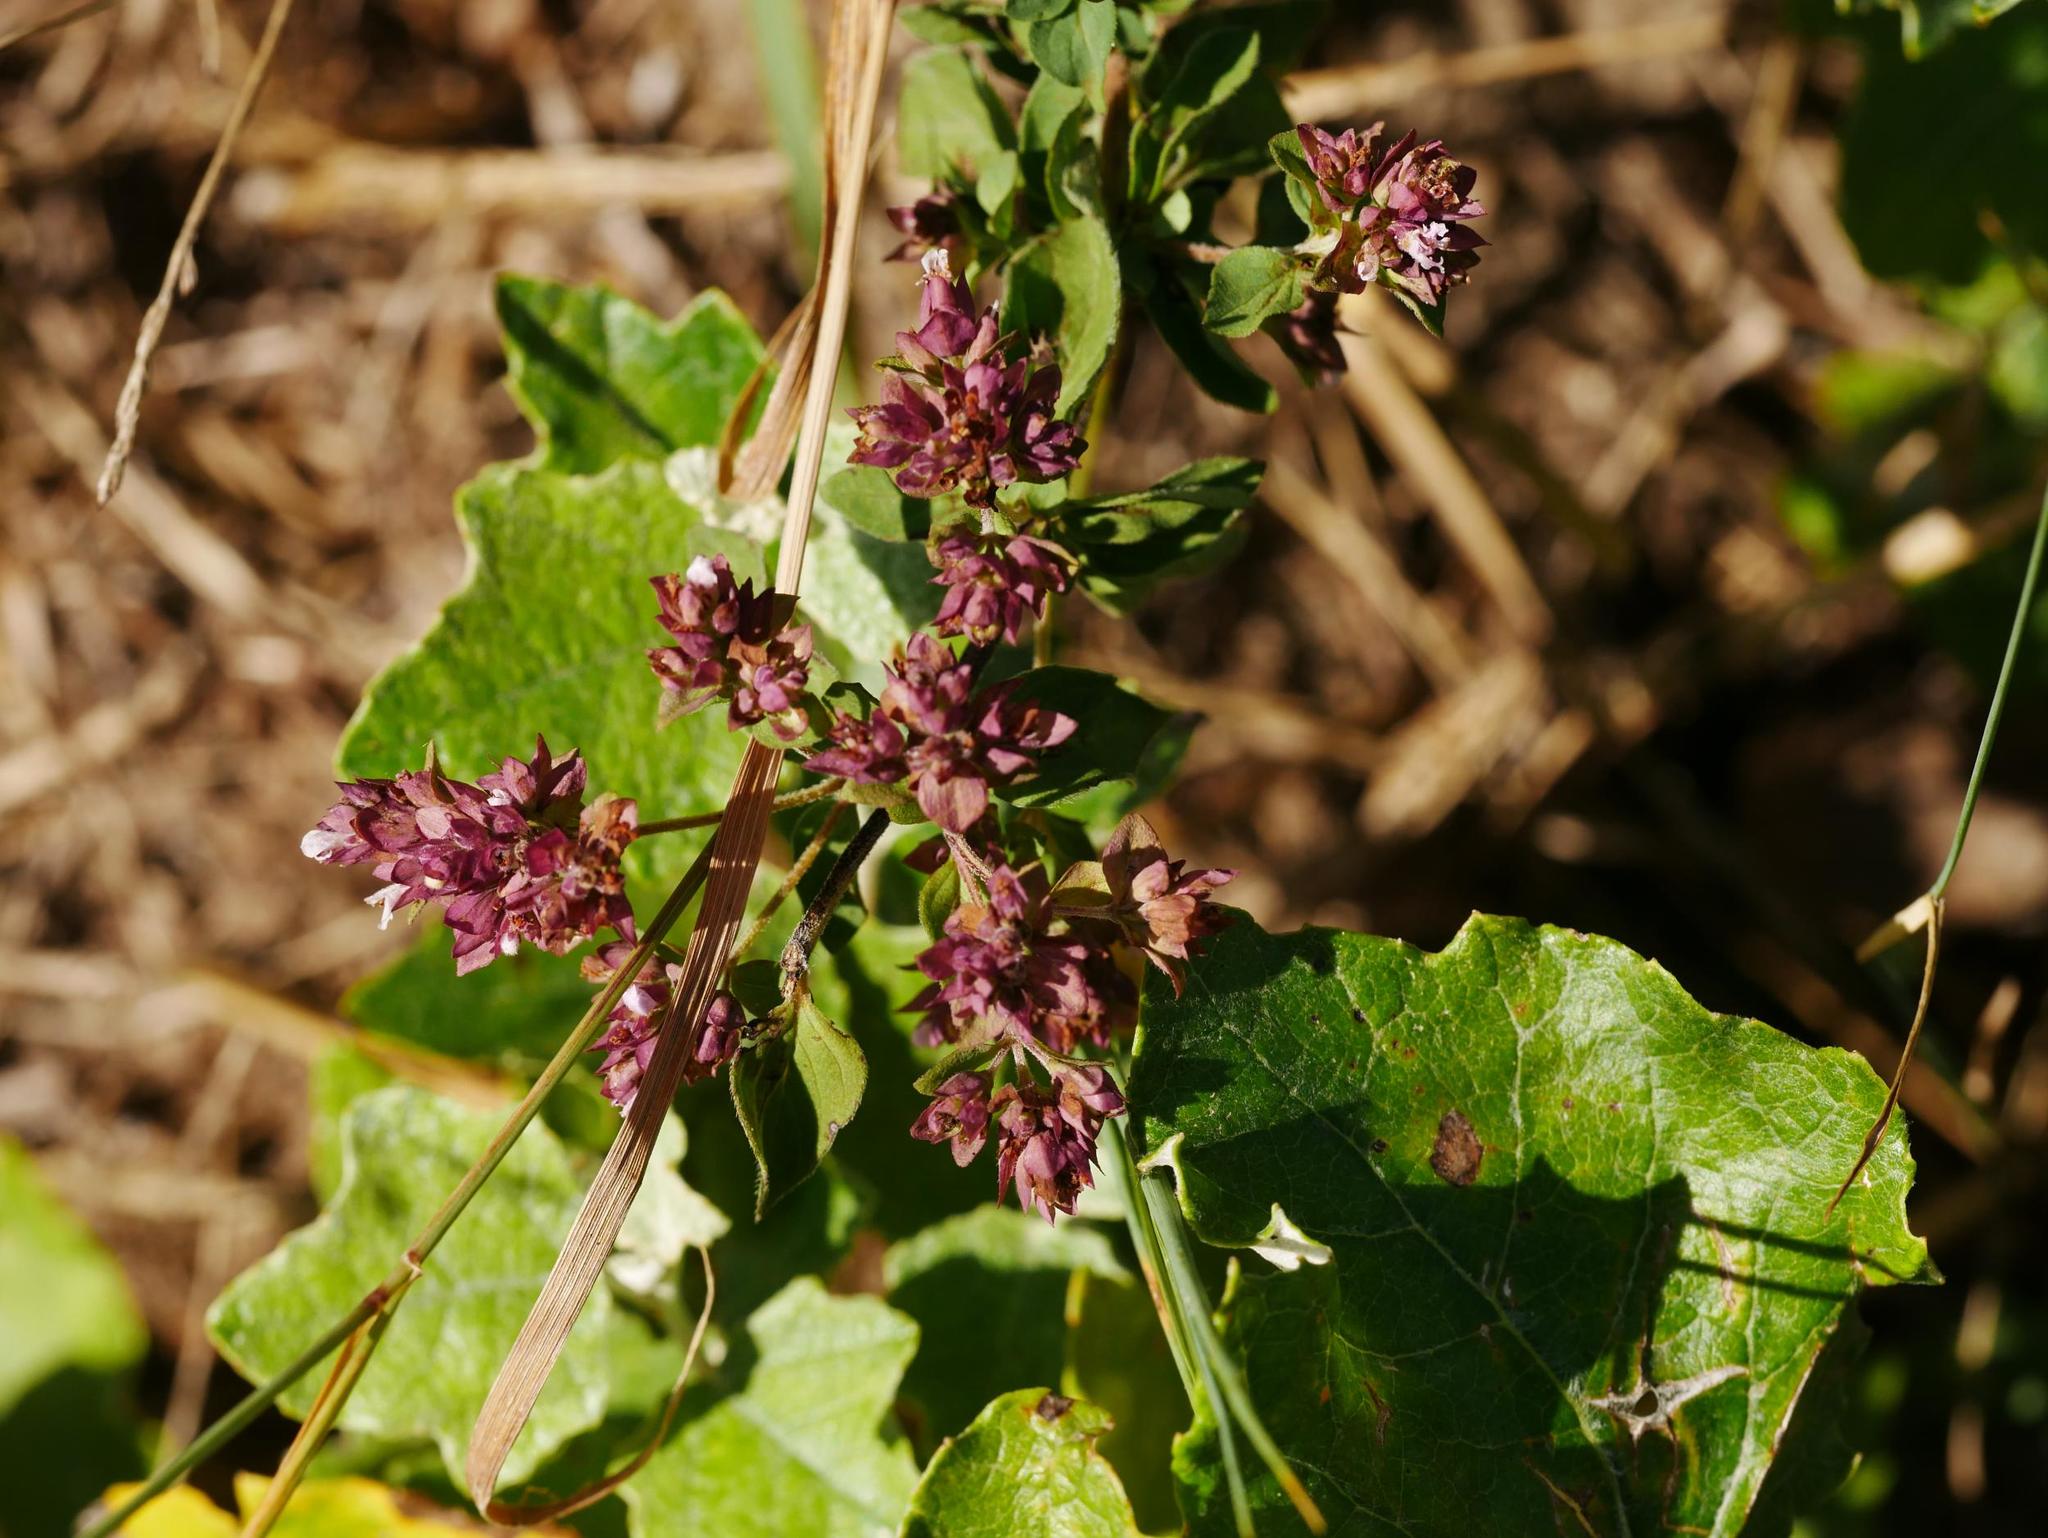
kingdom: Plantae
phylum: Tracheophyta
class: Magnoliopsida
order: Lamiales
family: Lamiaceae
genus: Origanum
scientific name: Origanum vulgare
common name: Wild marjoram
